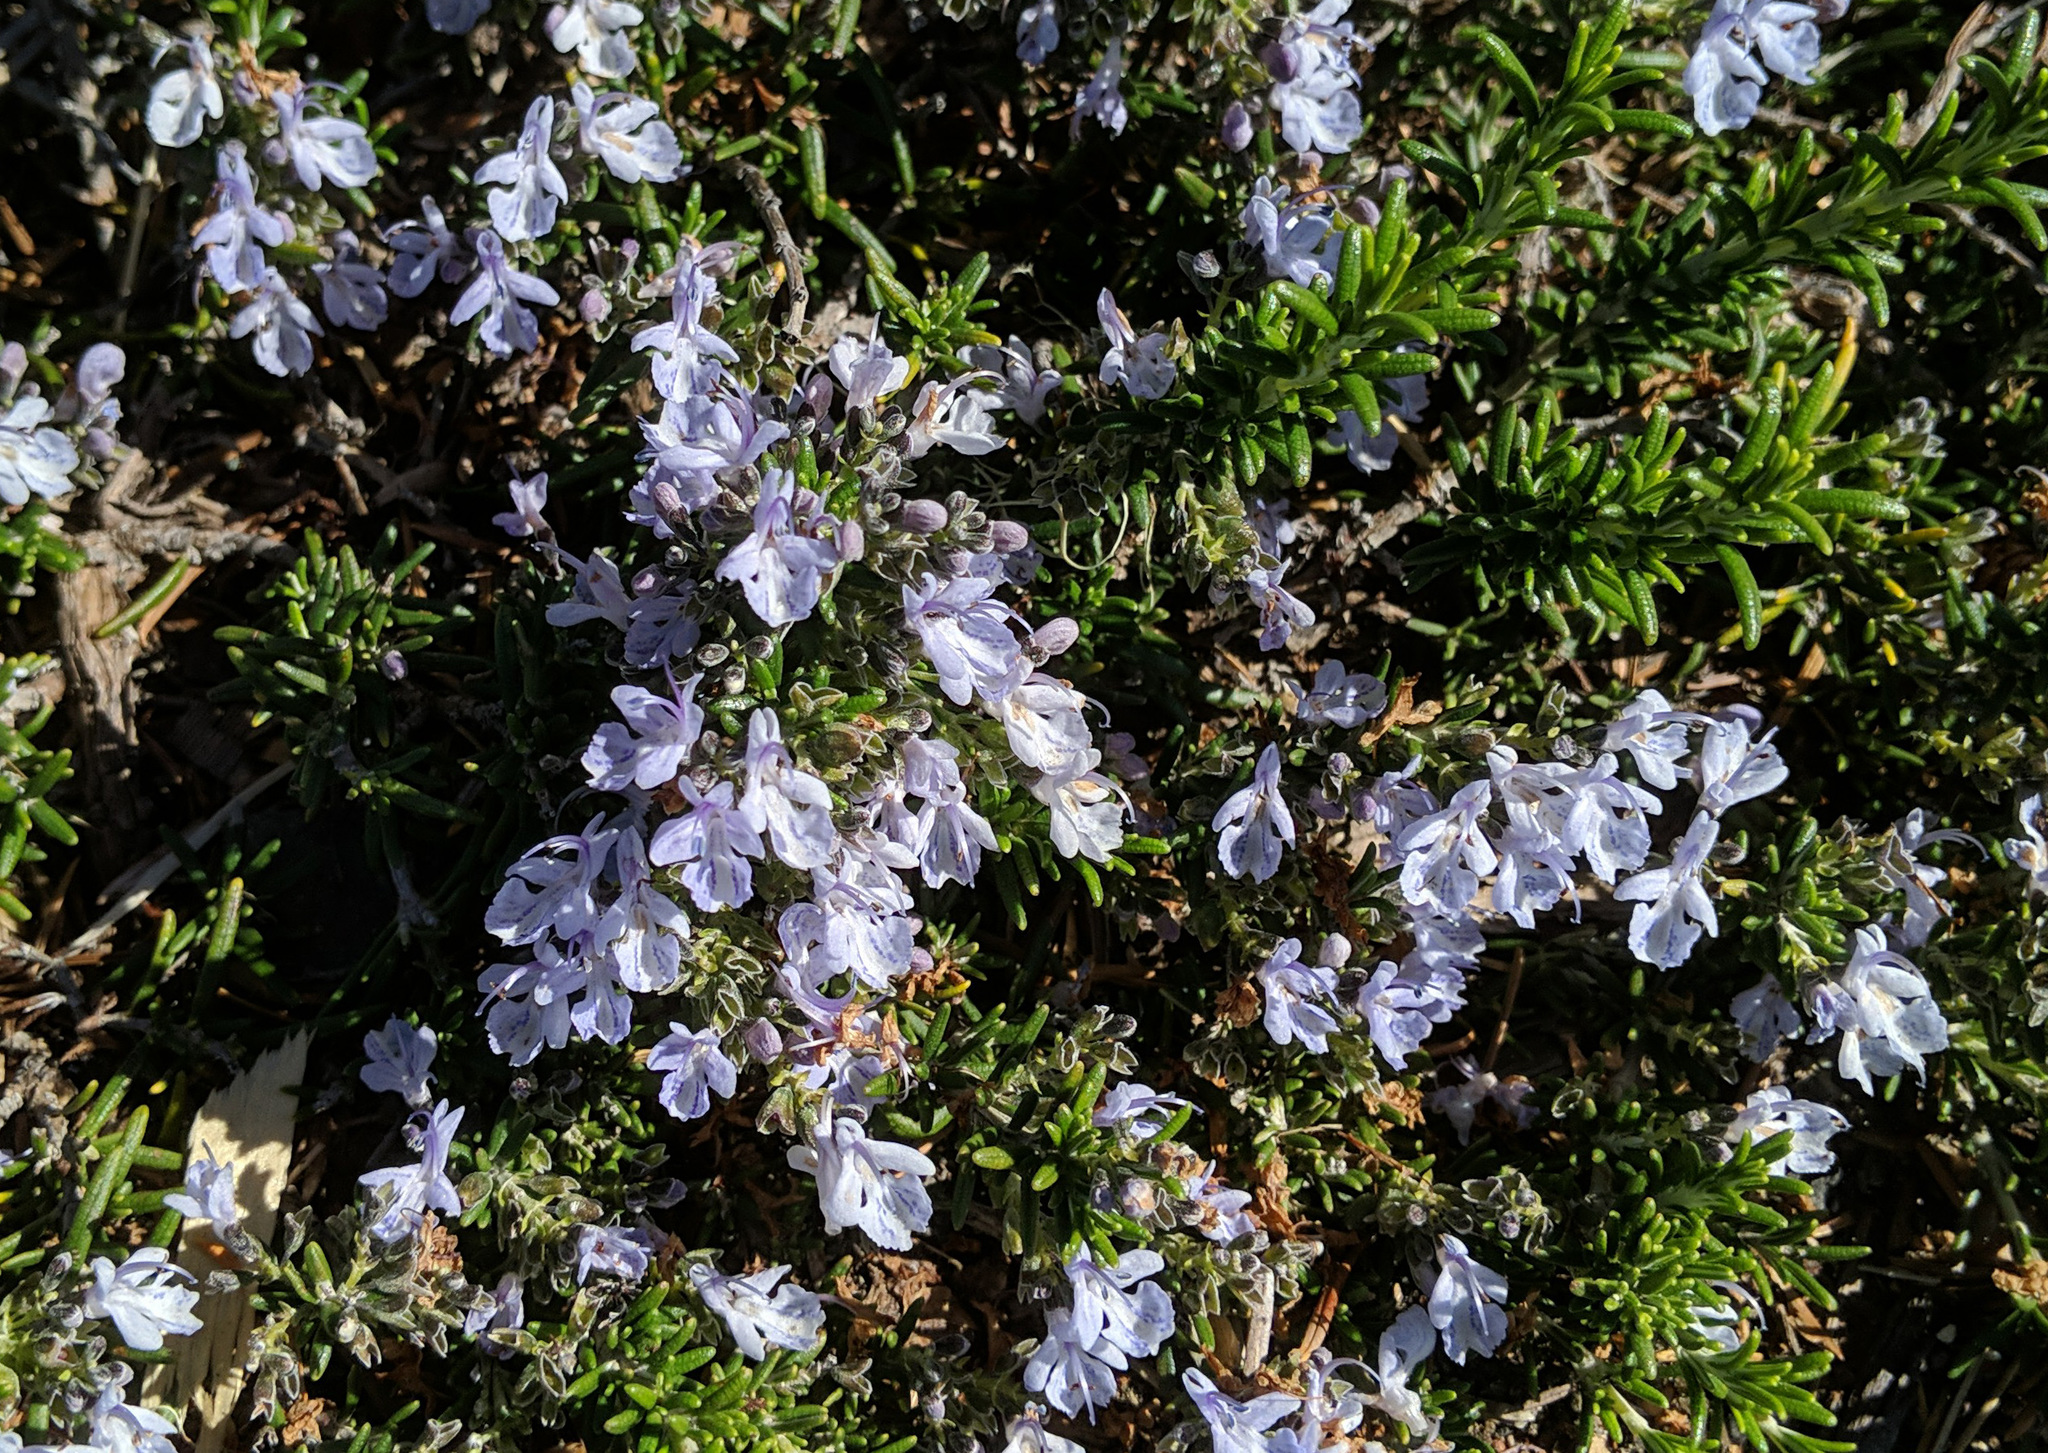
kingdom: Plantae
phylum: Tracheophyta
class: Magnoliopsida
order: Lamiales
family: Lamiaceae
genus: Salvia
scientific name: Salvia rosmarinus
